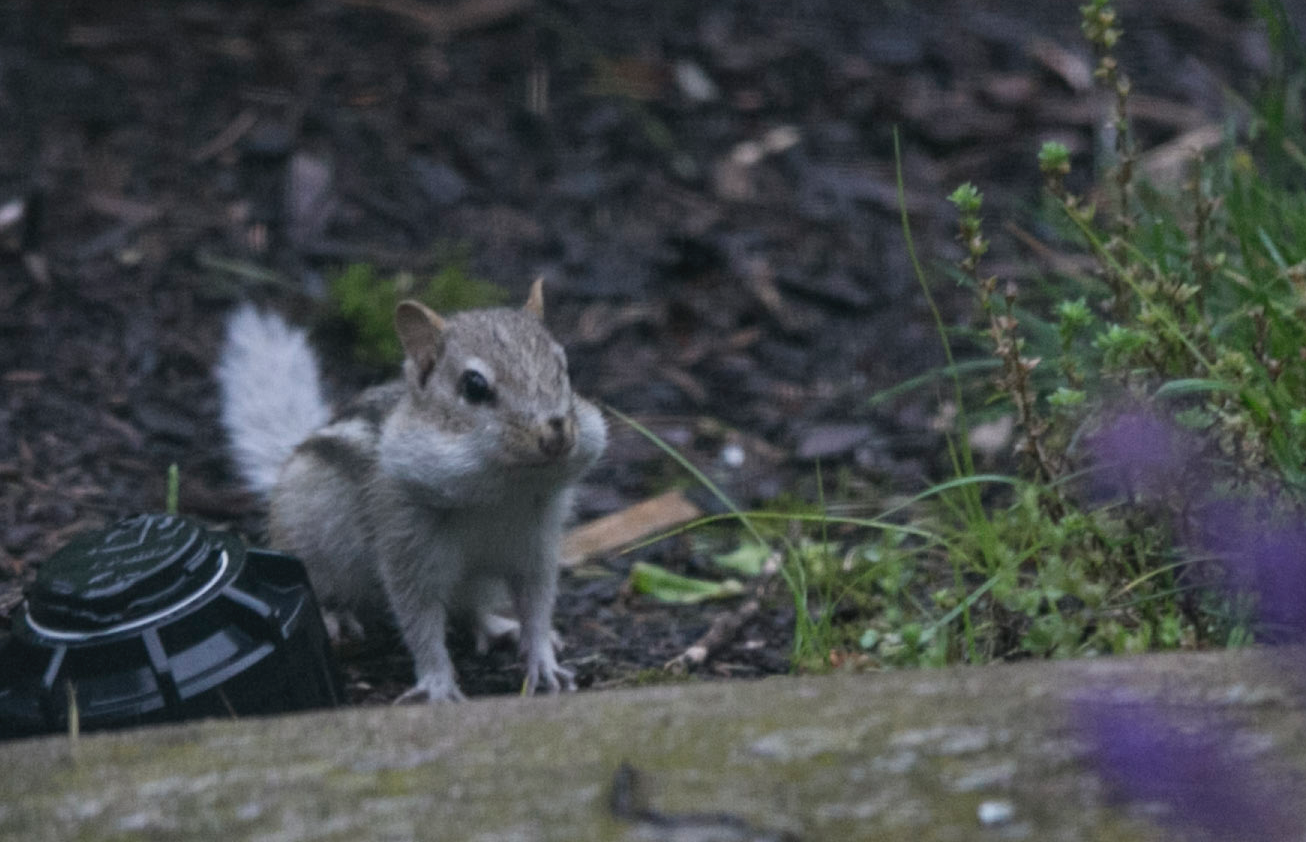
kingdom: Animalia
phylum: Chordata
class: Mammalia
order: Rodentia
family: Sciuridae
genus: Tamias
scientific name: Tamias striatus
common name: Eastern chipmunk
